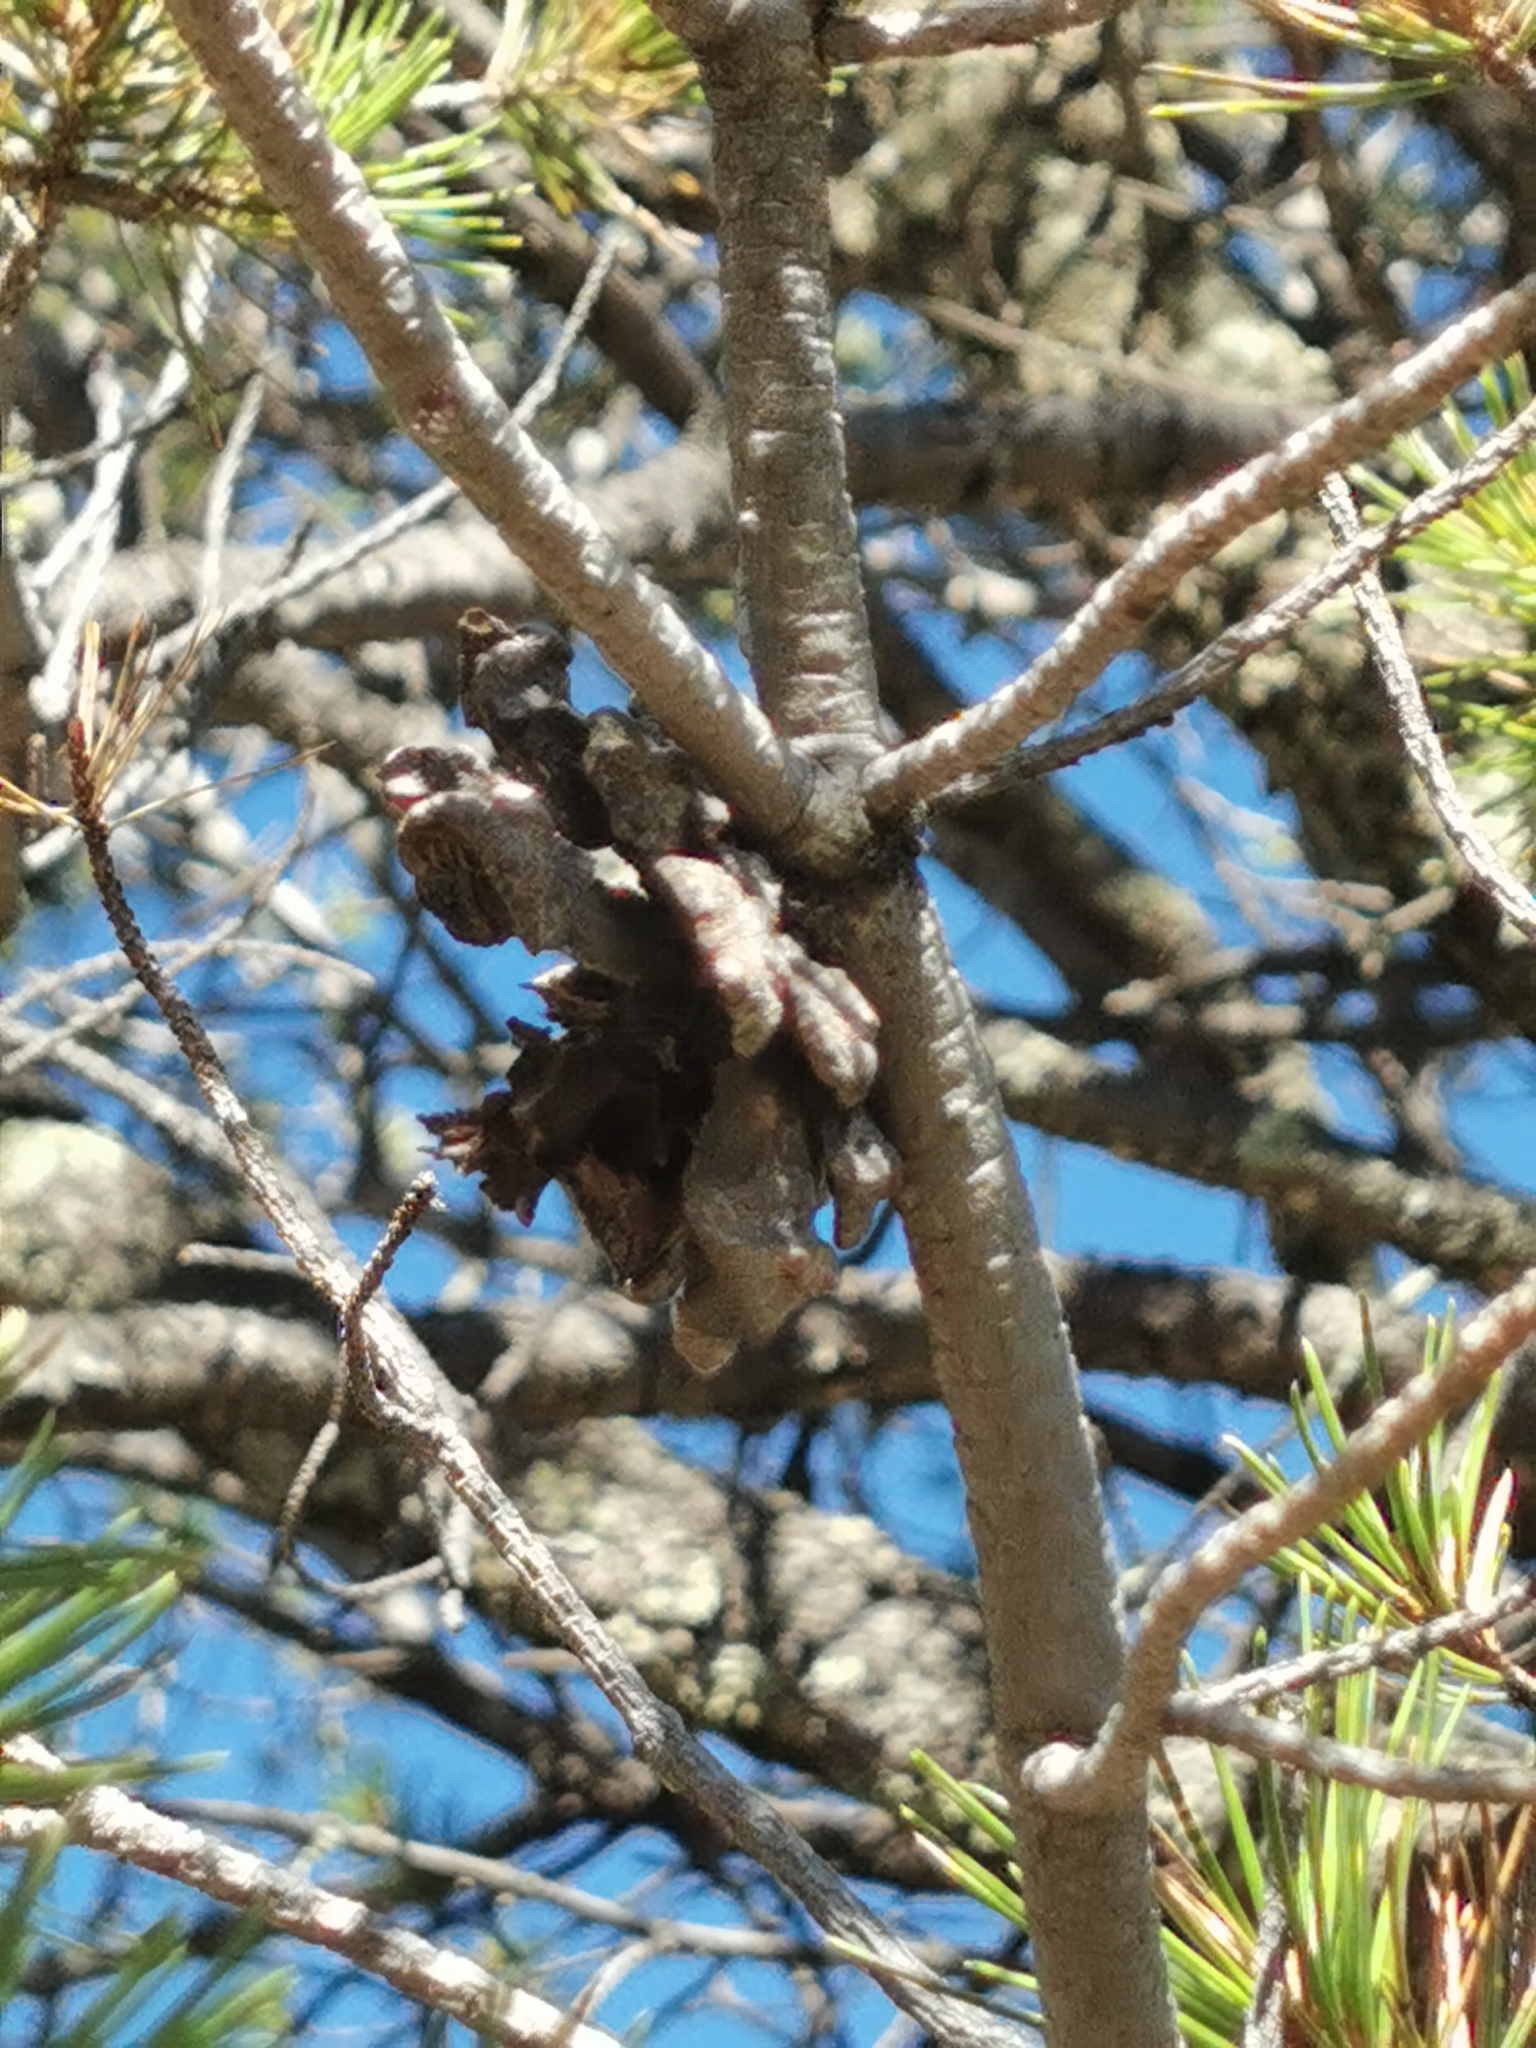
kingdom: Plantae
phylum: Tracheophyta
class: Pinopsida
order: Pinales
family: Pinaceae
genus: Pinus
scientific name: Pinus discolor
